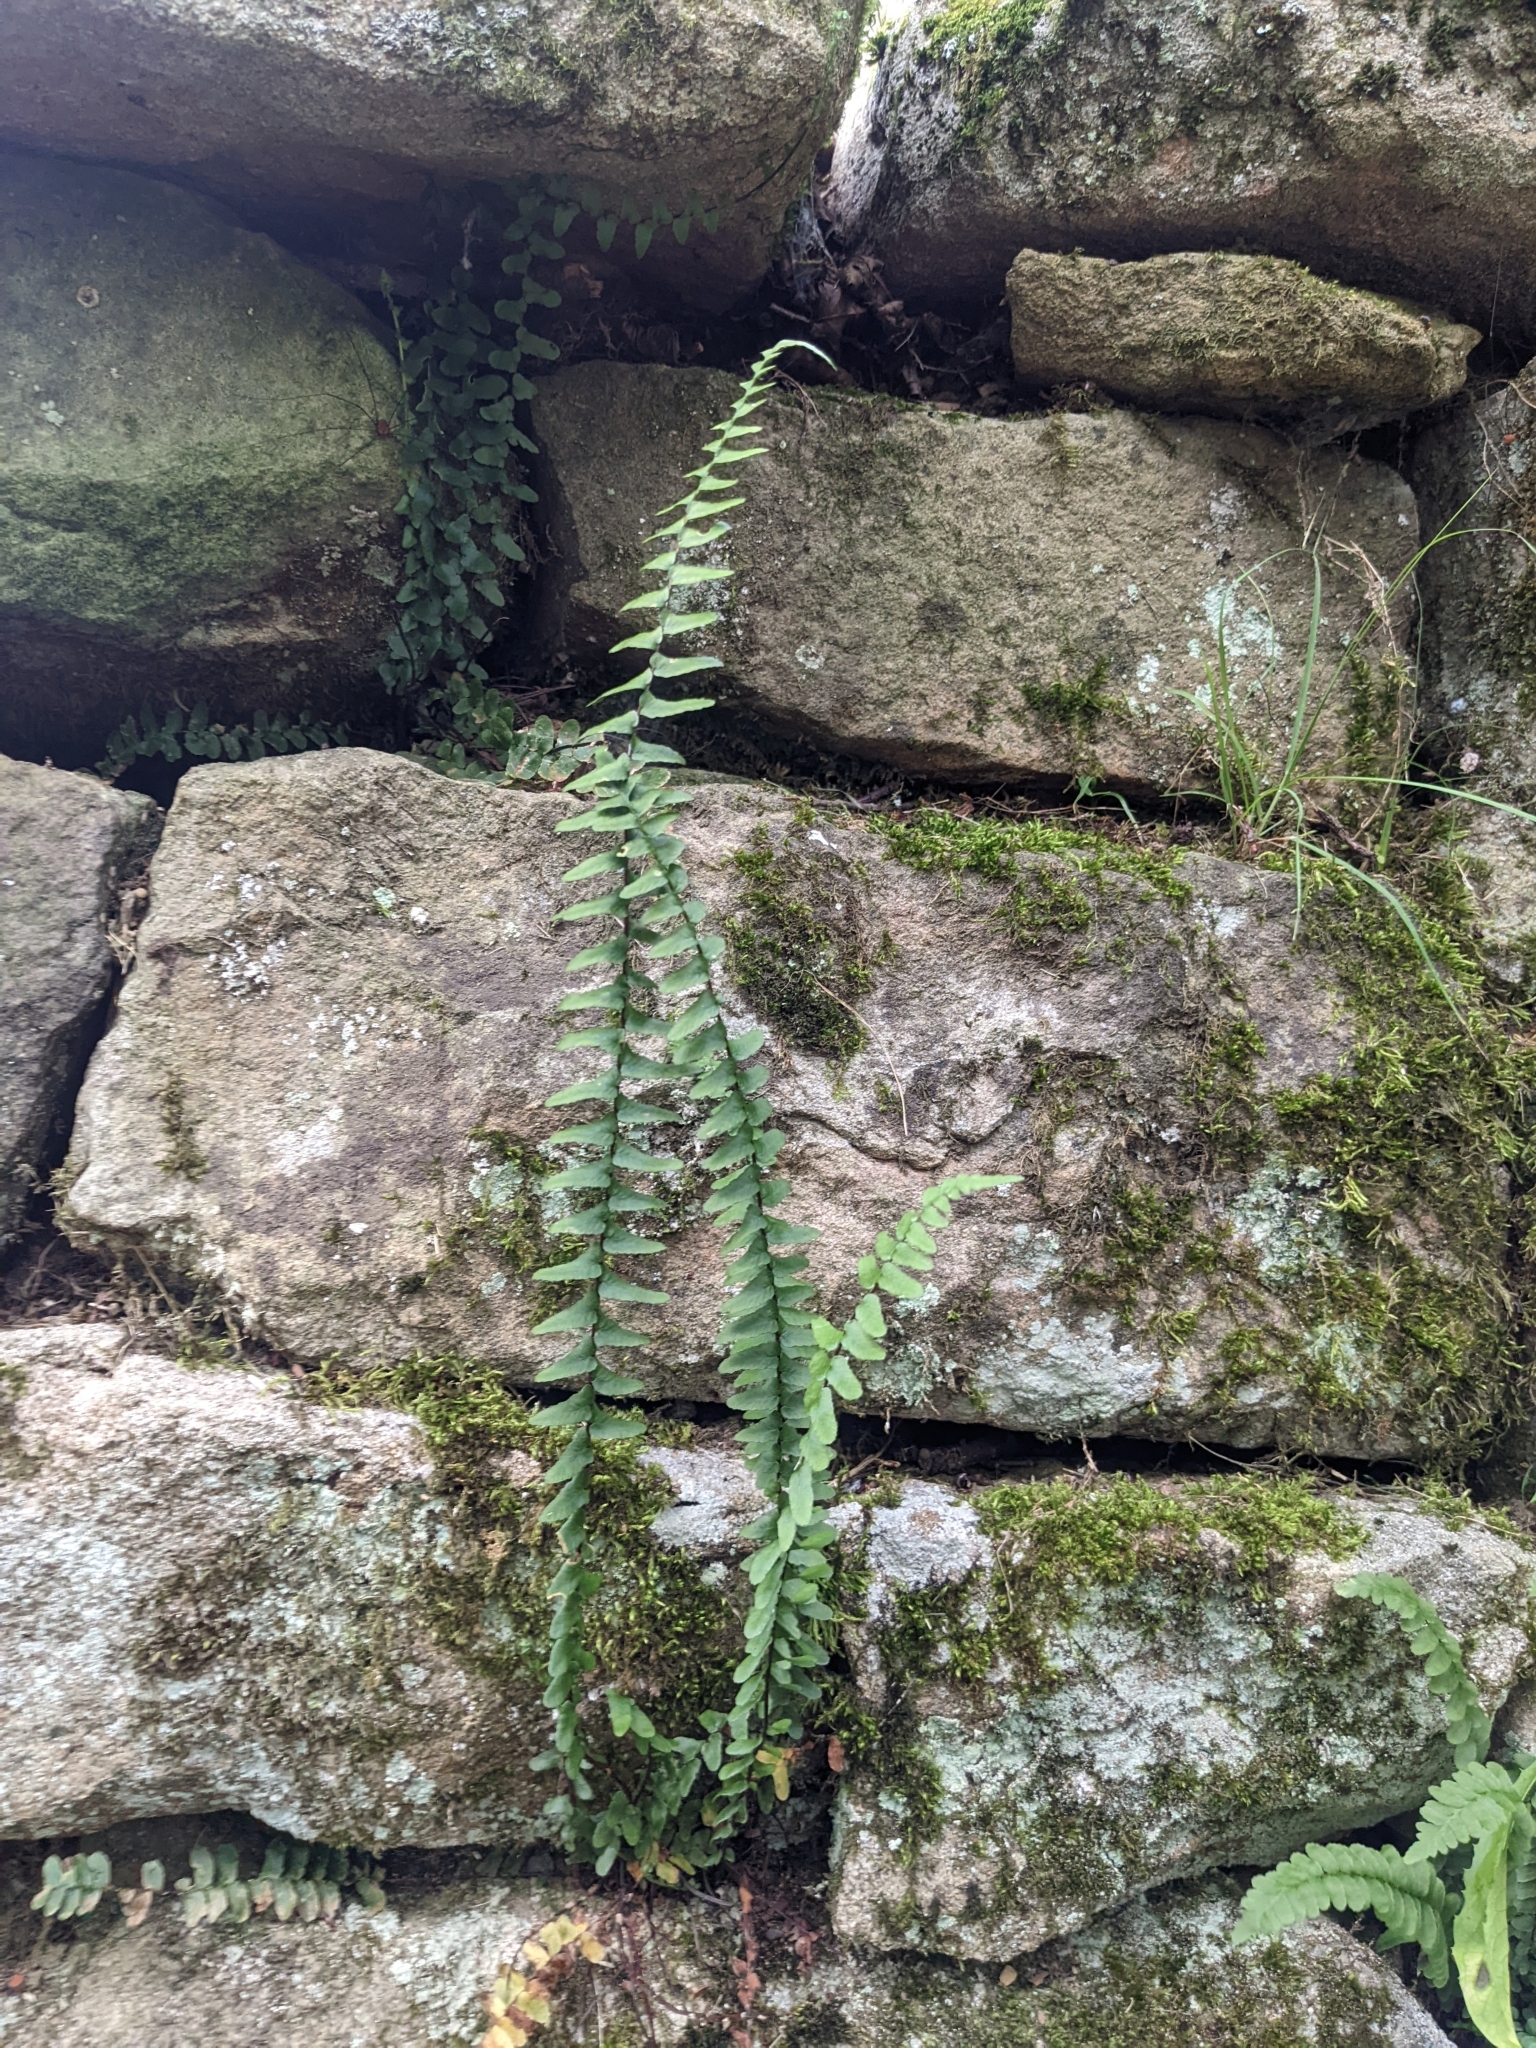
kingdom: Plantae
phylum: Tracheophyta
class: Polypodiopsida
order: Polypodiales
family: Aspleniaceae
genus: Asplenium
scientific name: Asplenium platyneuron
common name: Ebony spleenwort
